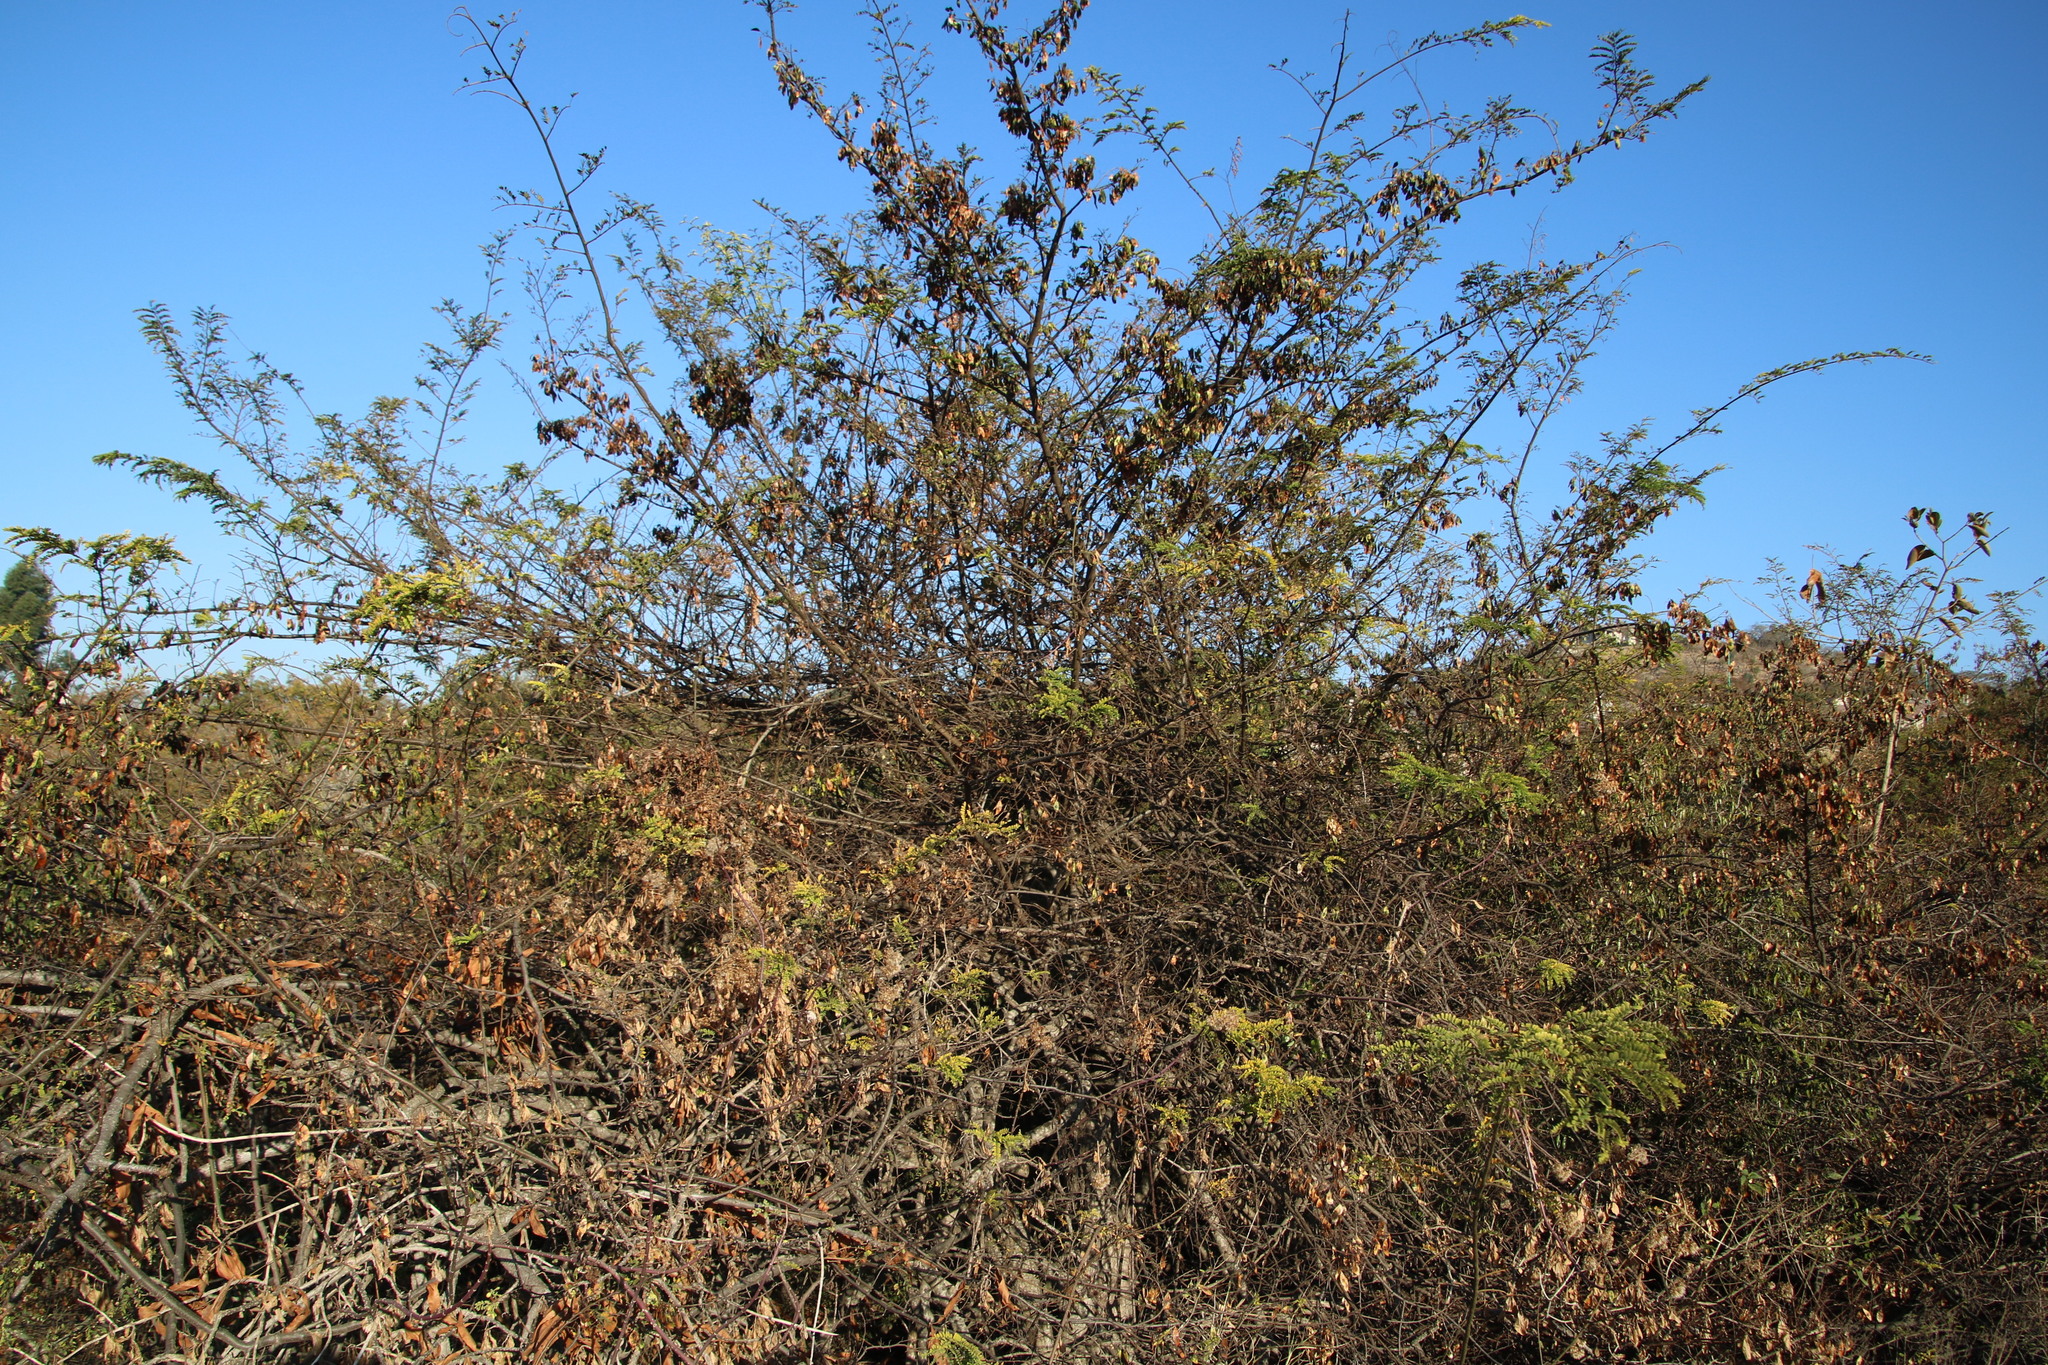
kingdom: Plantae
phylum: Tracheophyta
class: Magnoliopsida
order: Fabales
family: Fabaceae
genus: Dalbergia
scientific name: Dalbergia armata
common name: Hluhluwe climber
